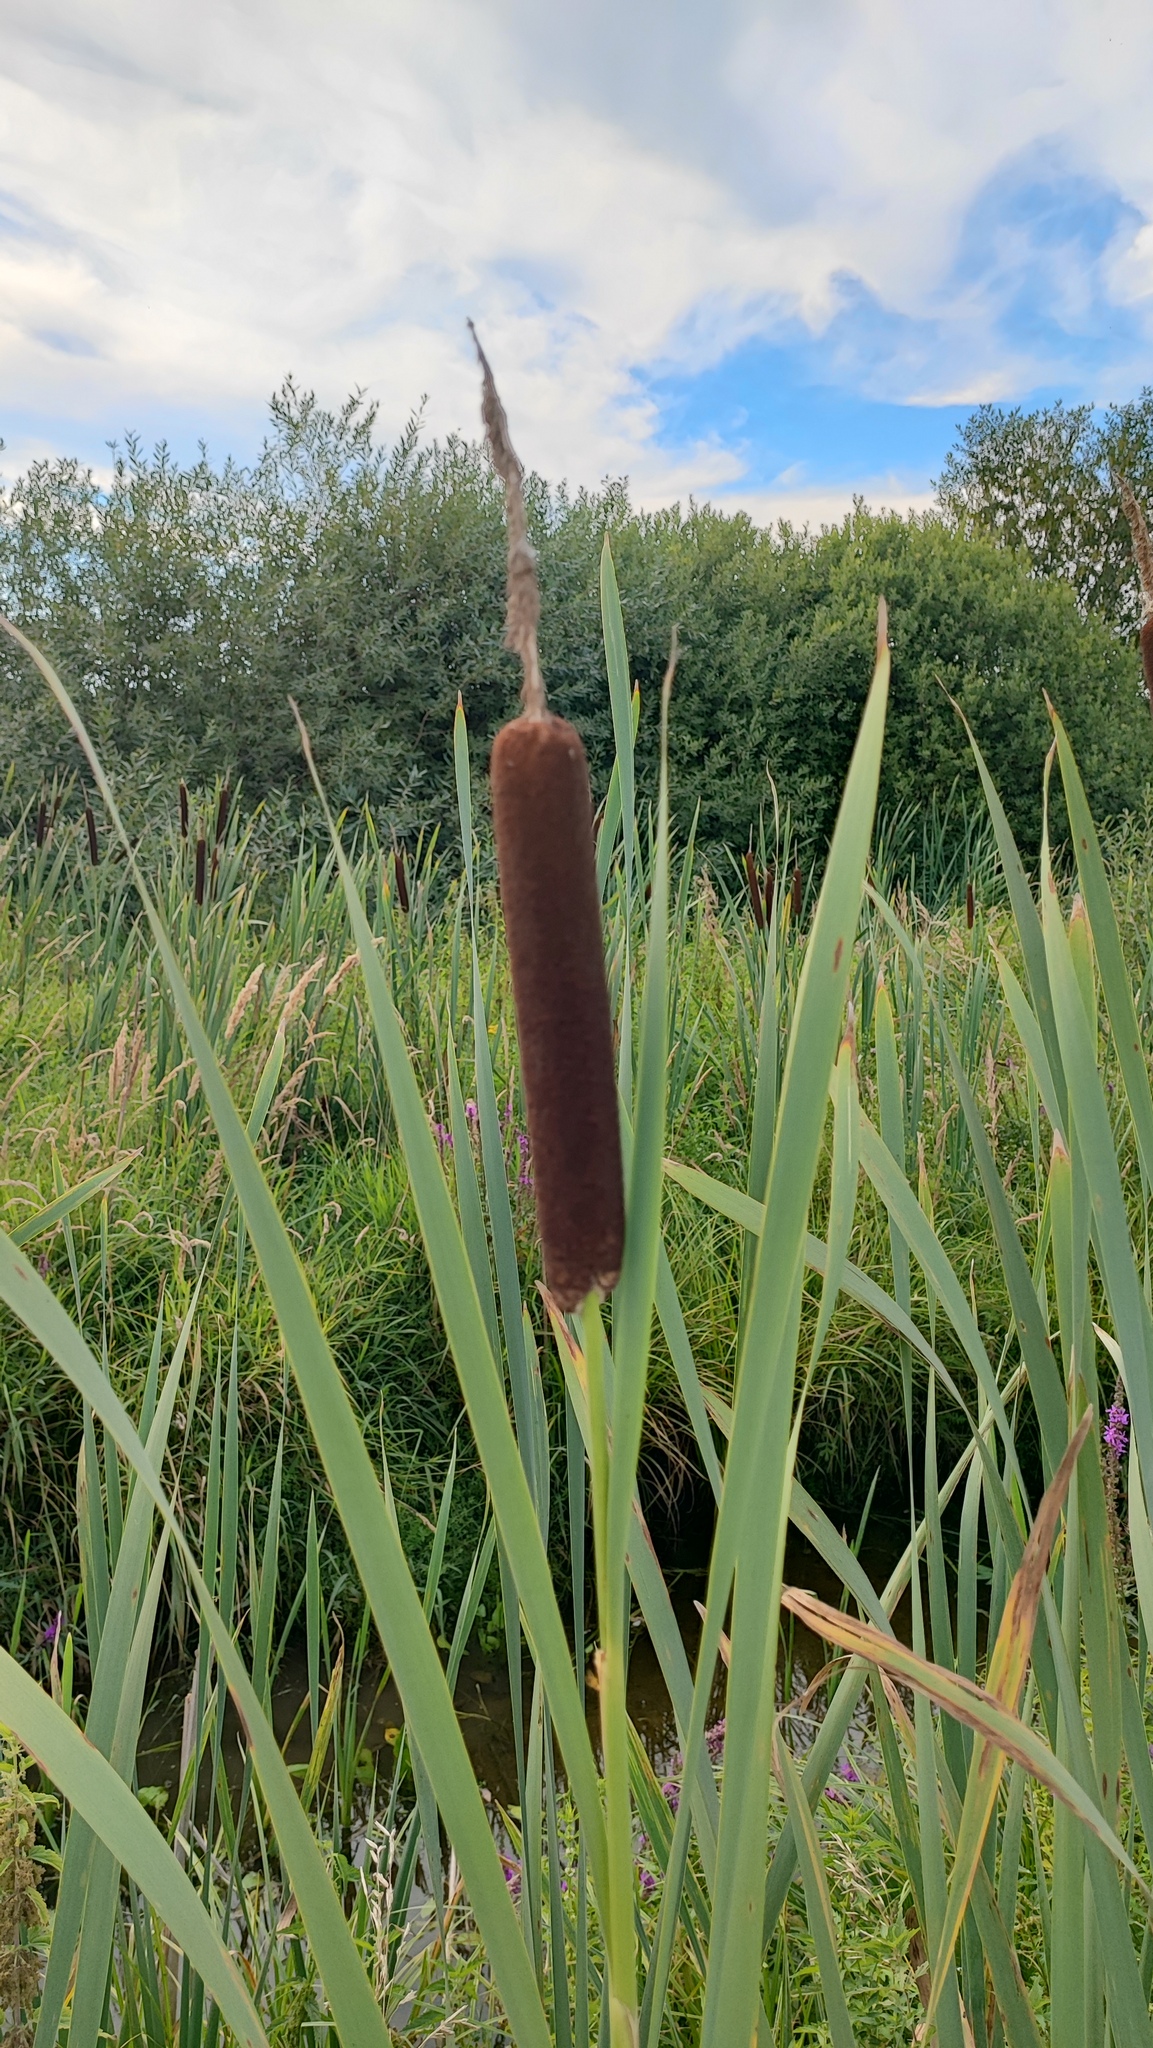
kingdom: Plantae
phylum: Tracheophyta
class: Liliopsida
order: Poales
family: Typhaceae
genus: Typha
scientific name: Typha latifolia
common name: Broadleaf cattail
